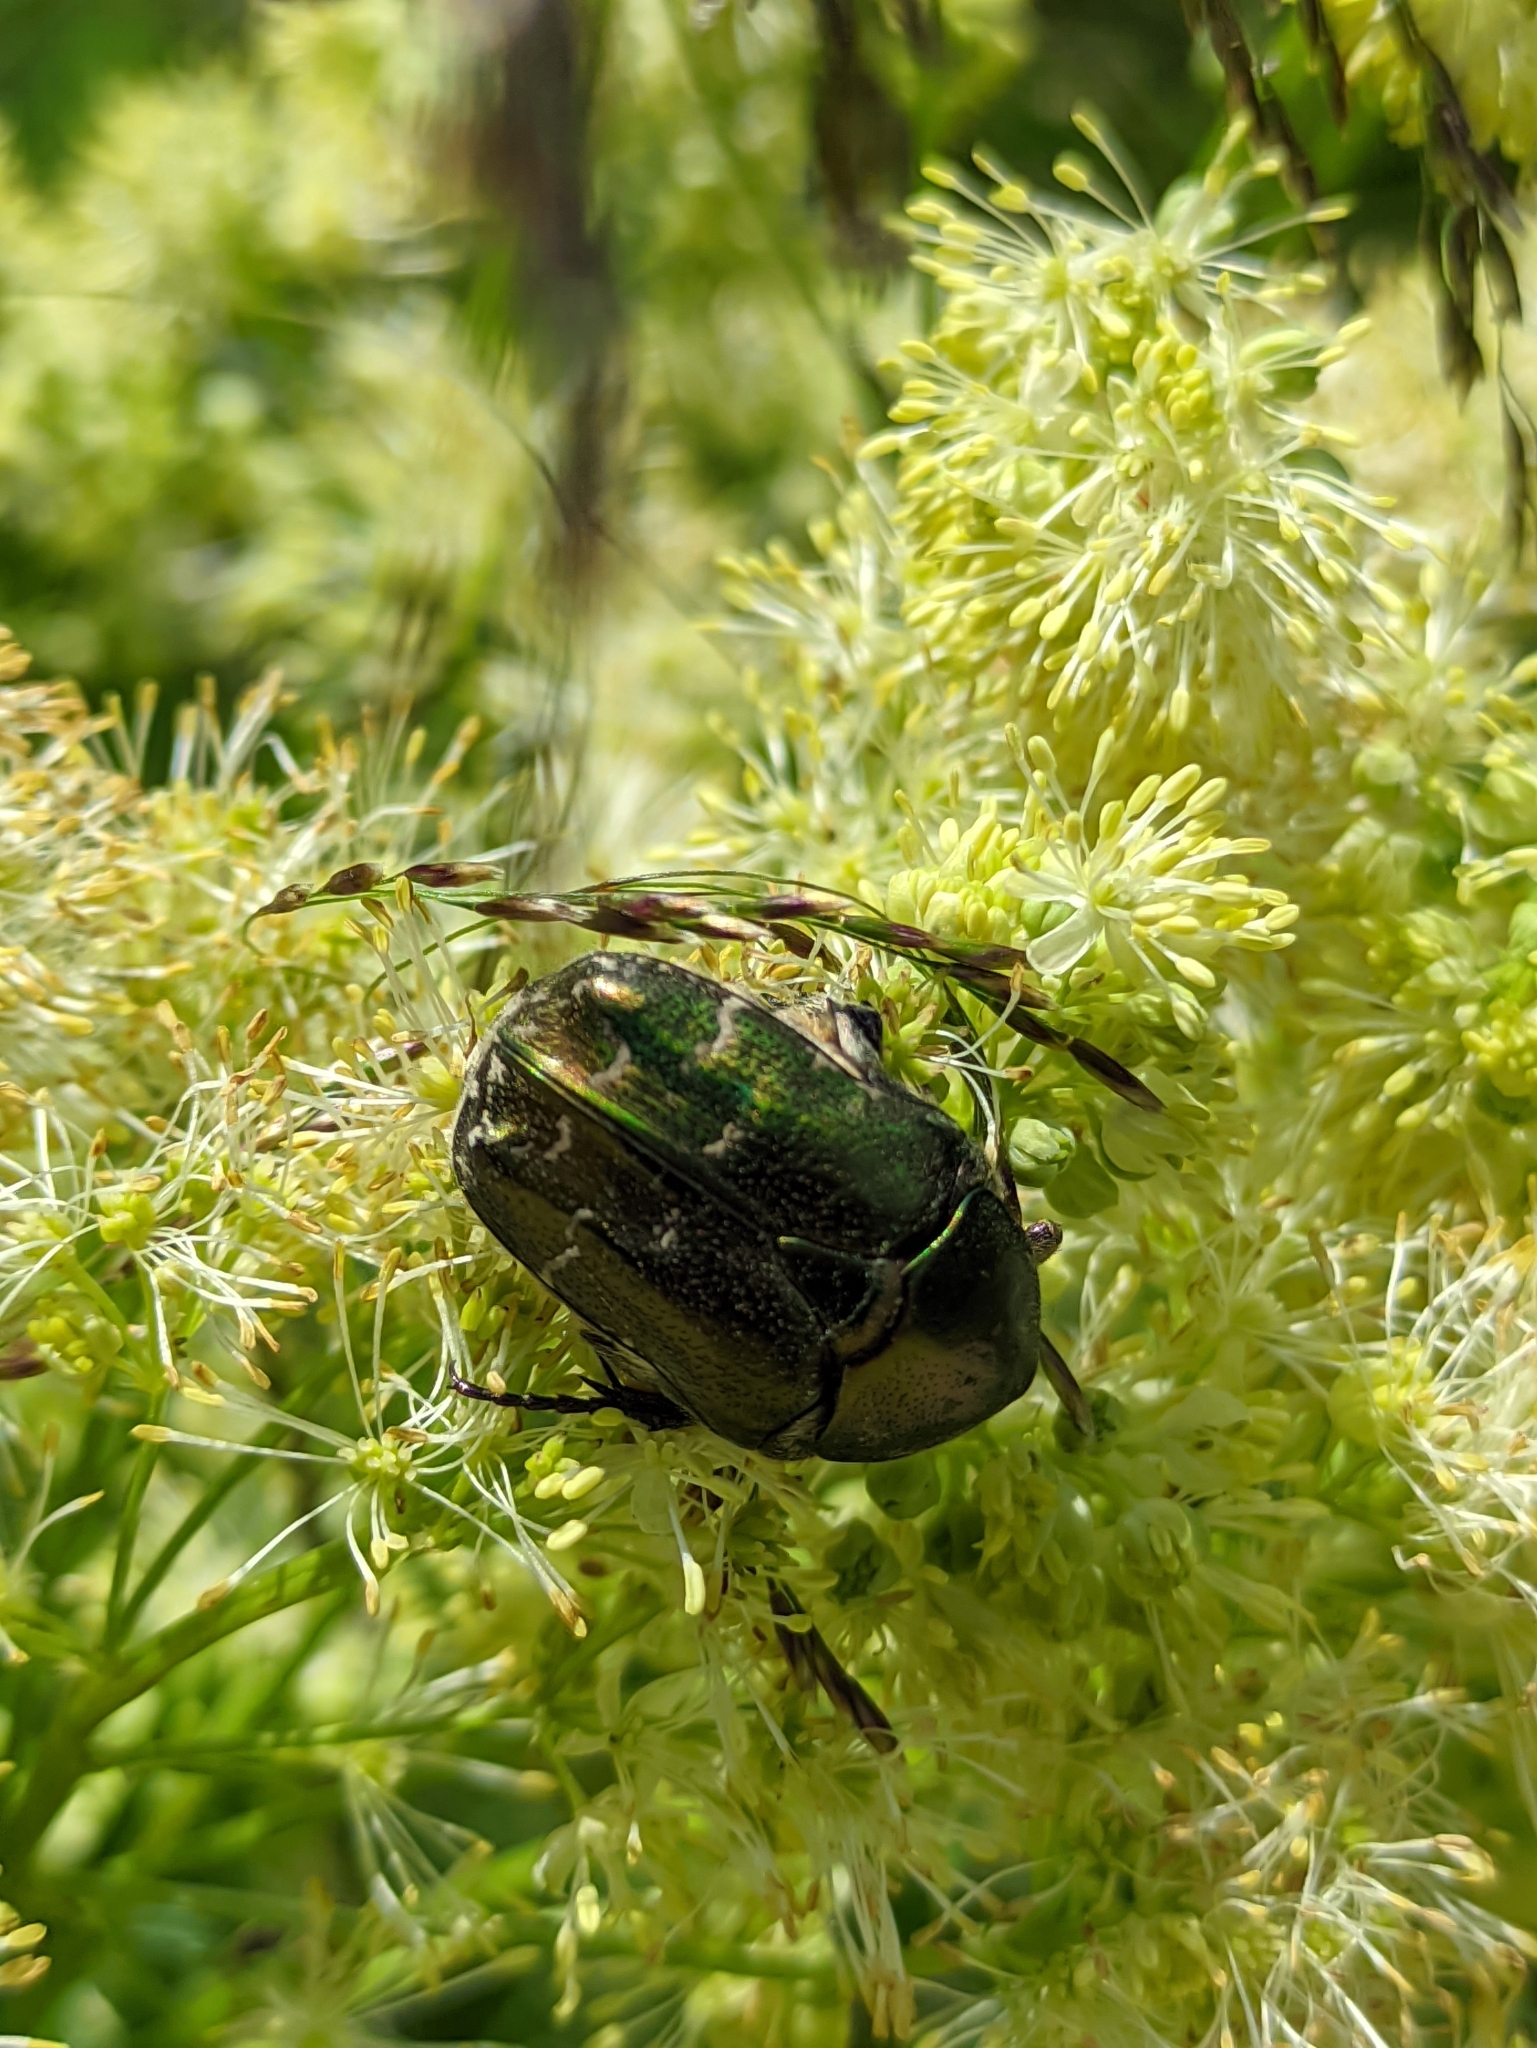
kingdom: Animalia
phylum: Arthropoda
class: Insecta
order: Coleoptera
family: Scarabaeidae
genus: Protaetia
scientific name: Protaetia cuprea
